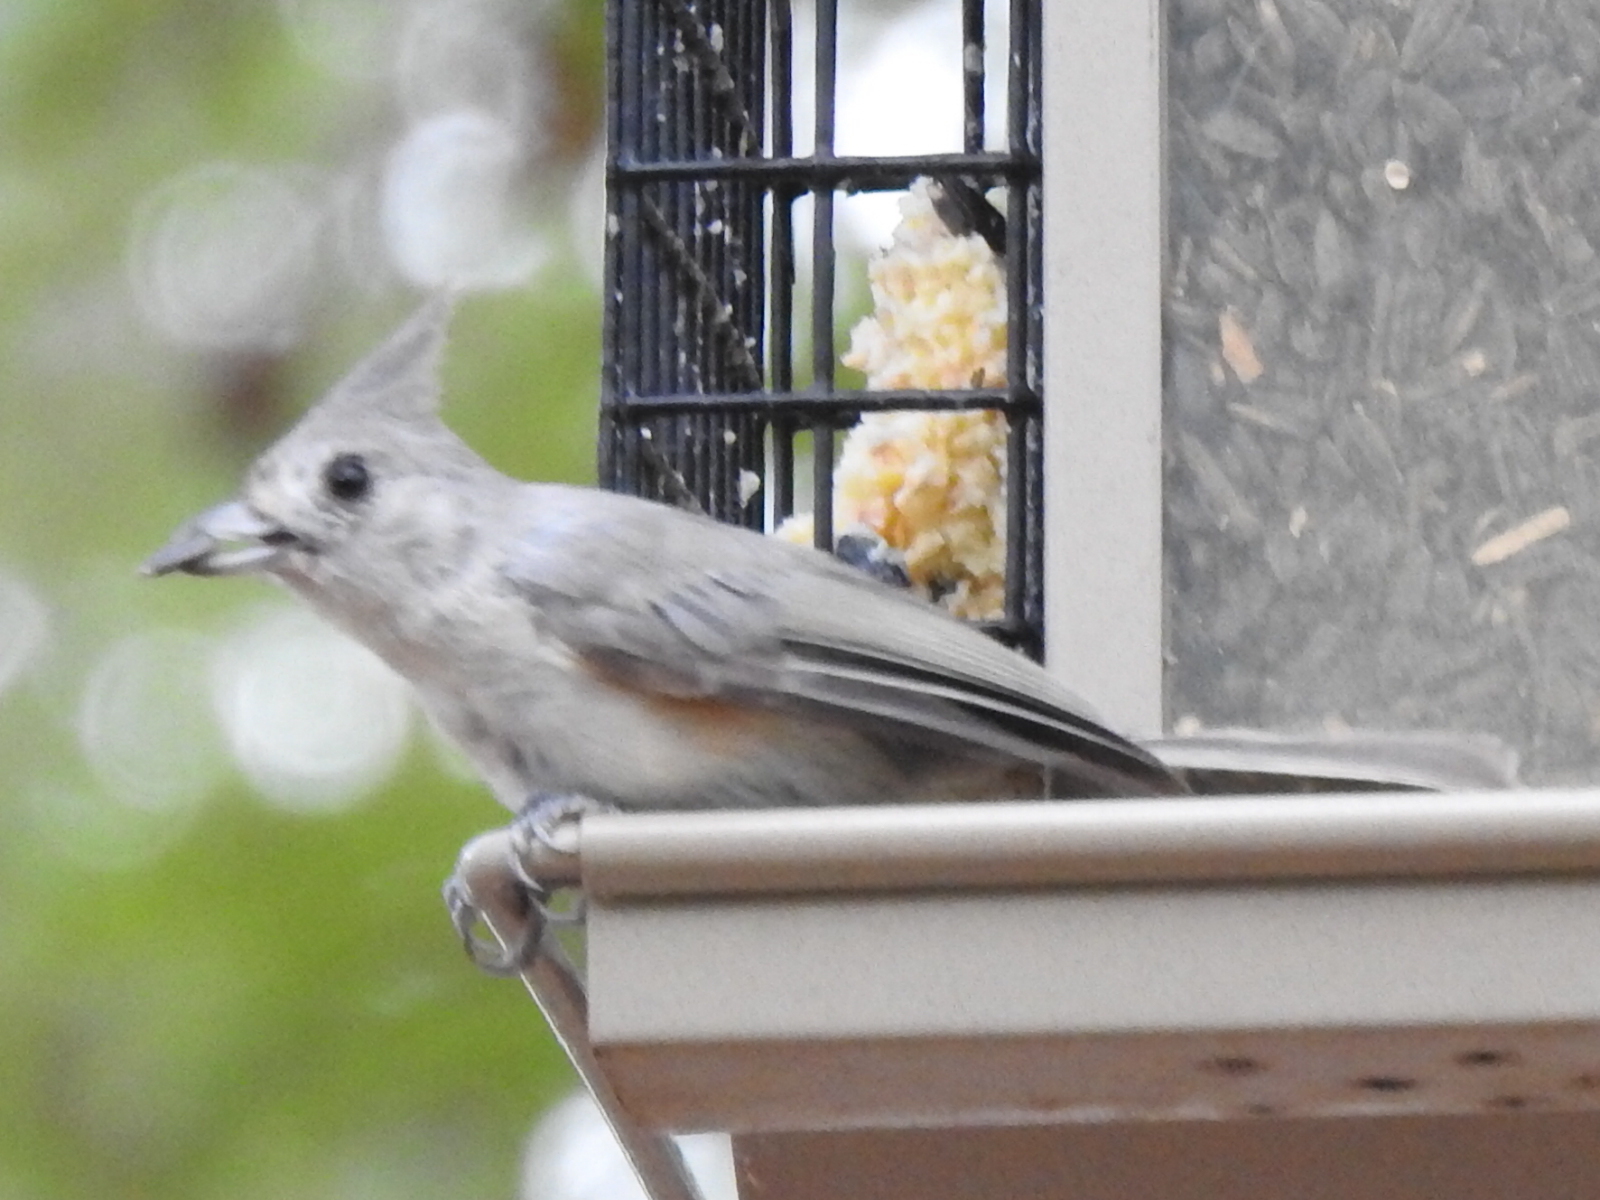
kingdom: Animalia
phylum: Chordata
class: Aves
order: Passeriformes
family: Paridae
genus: Baeolophus
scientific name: Baeolophus
